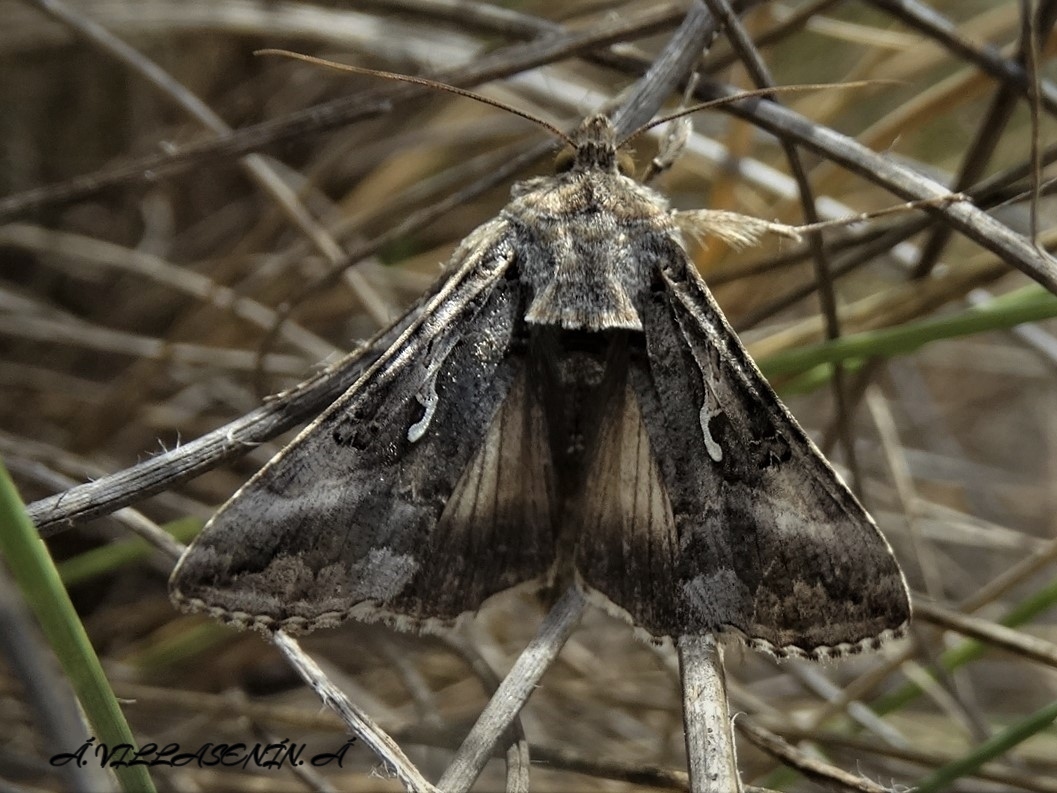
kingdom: Animalia
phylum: Arthropoda
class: Insecta
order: Lepidoptera
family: Noctuidae
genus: Autographa
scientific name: Autographa gamma
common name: Silver y
